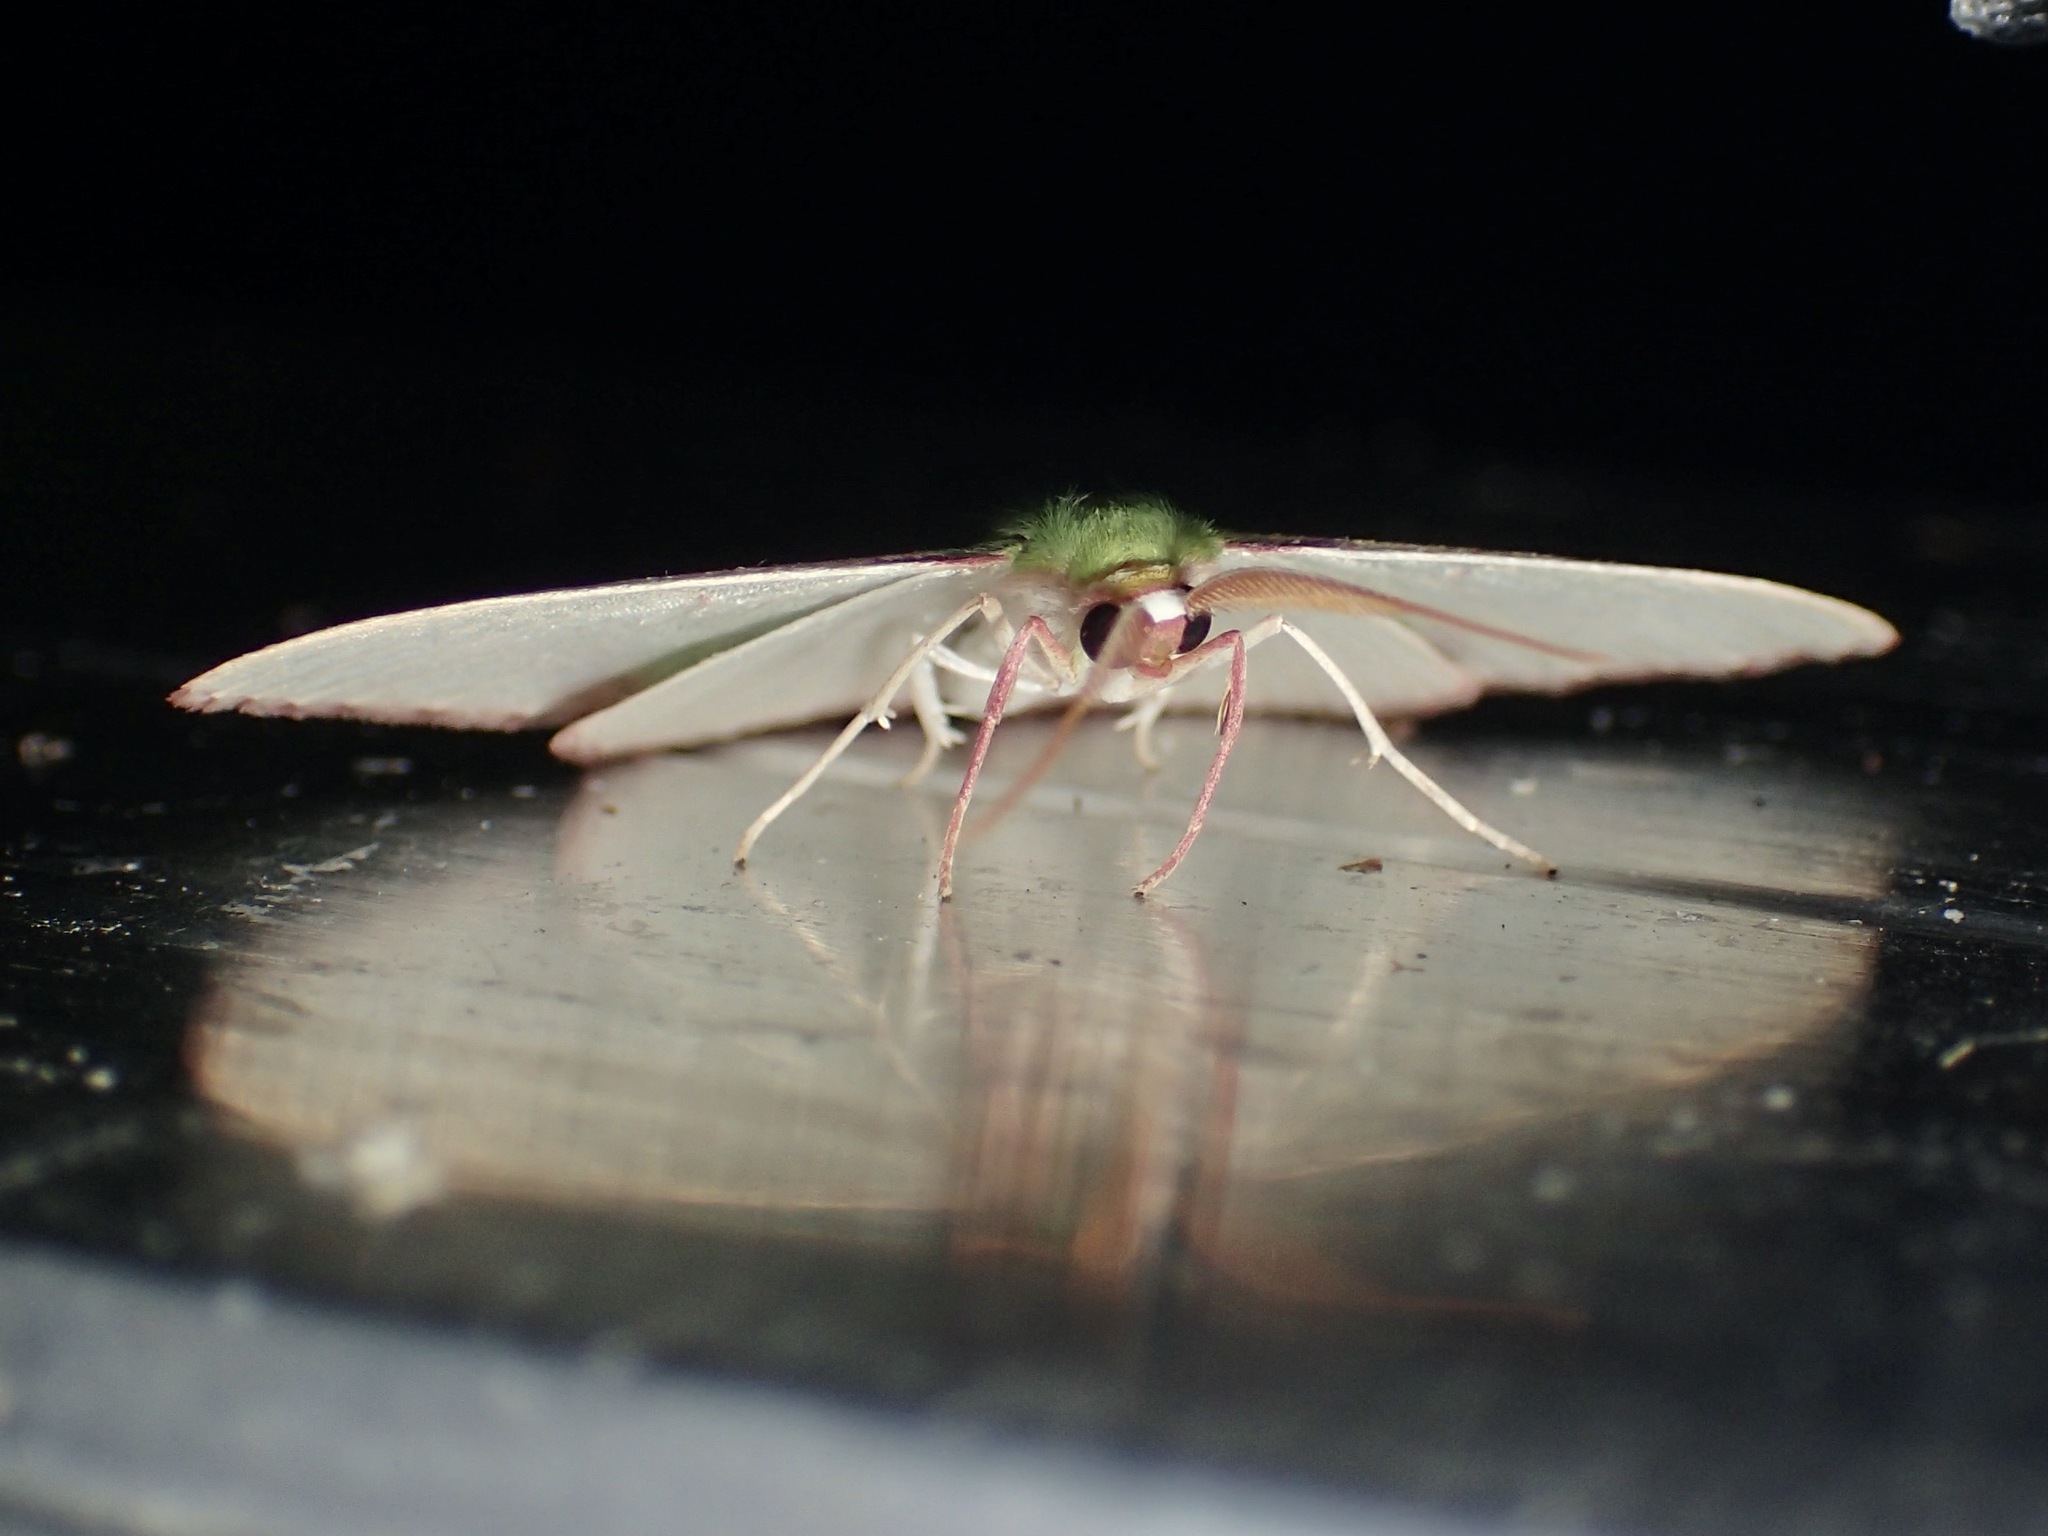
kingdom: Animalia
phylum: Arthropoda
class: Insecta
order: Lepidoptera
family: Geometridae
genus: Prasinocyma
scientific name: Prasinocyma rhodocosma
